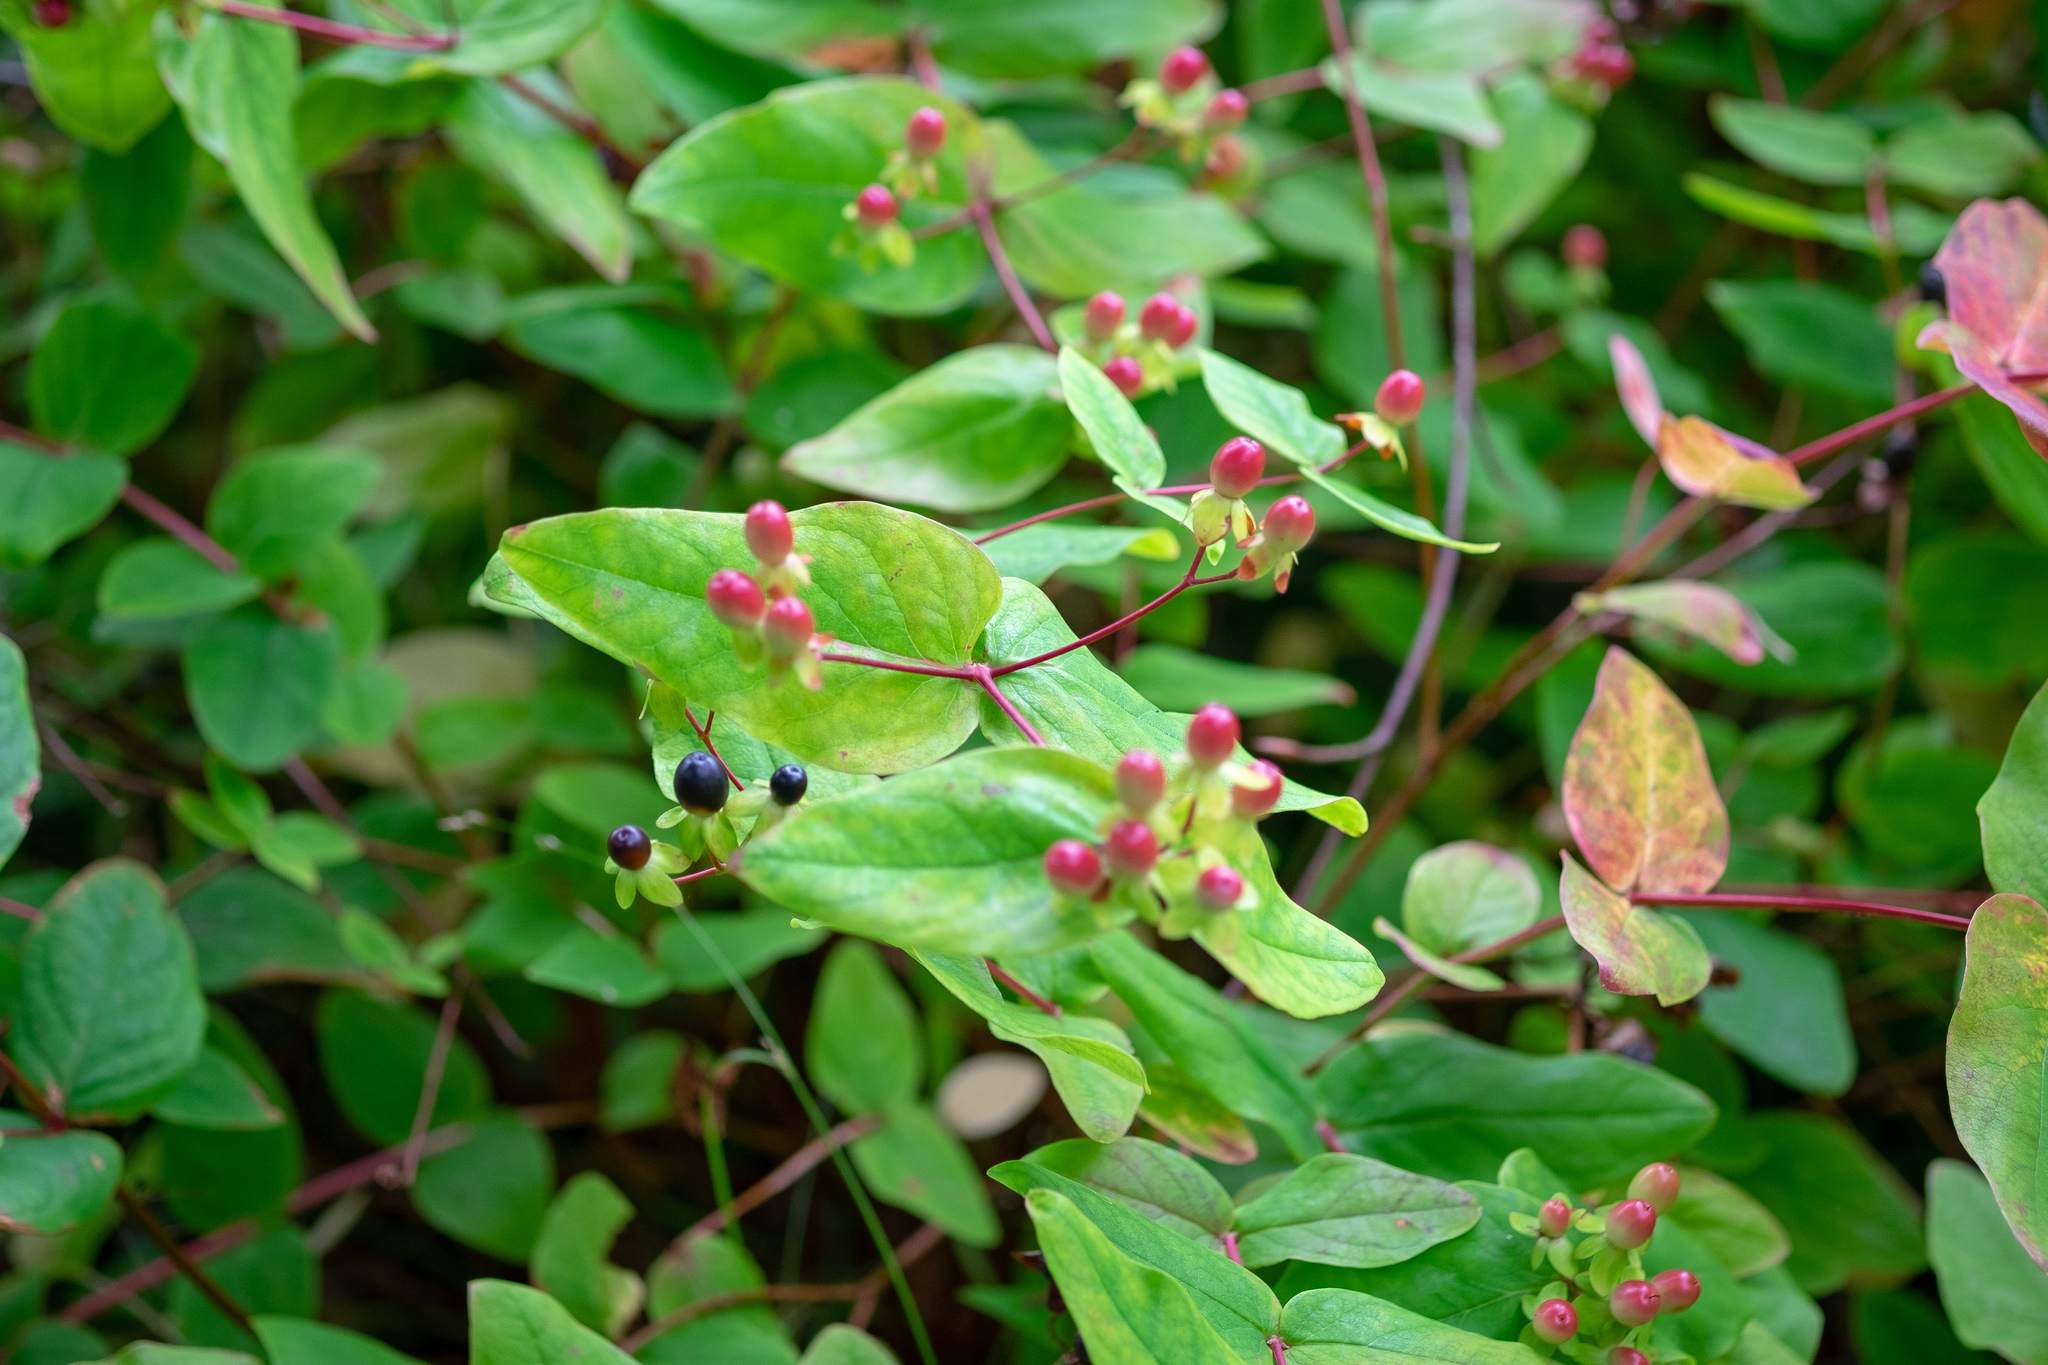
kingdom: Plantae
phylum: Tracheophyta
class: Magnoliopsida
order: Malpighiales
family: Hypericaceae
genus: Hypericum
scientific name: Hypericum androsaemum
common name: Sweet-amber
